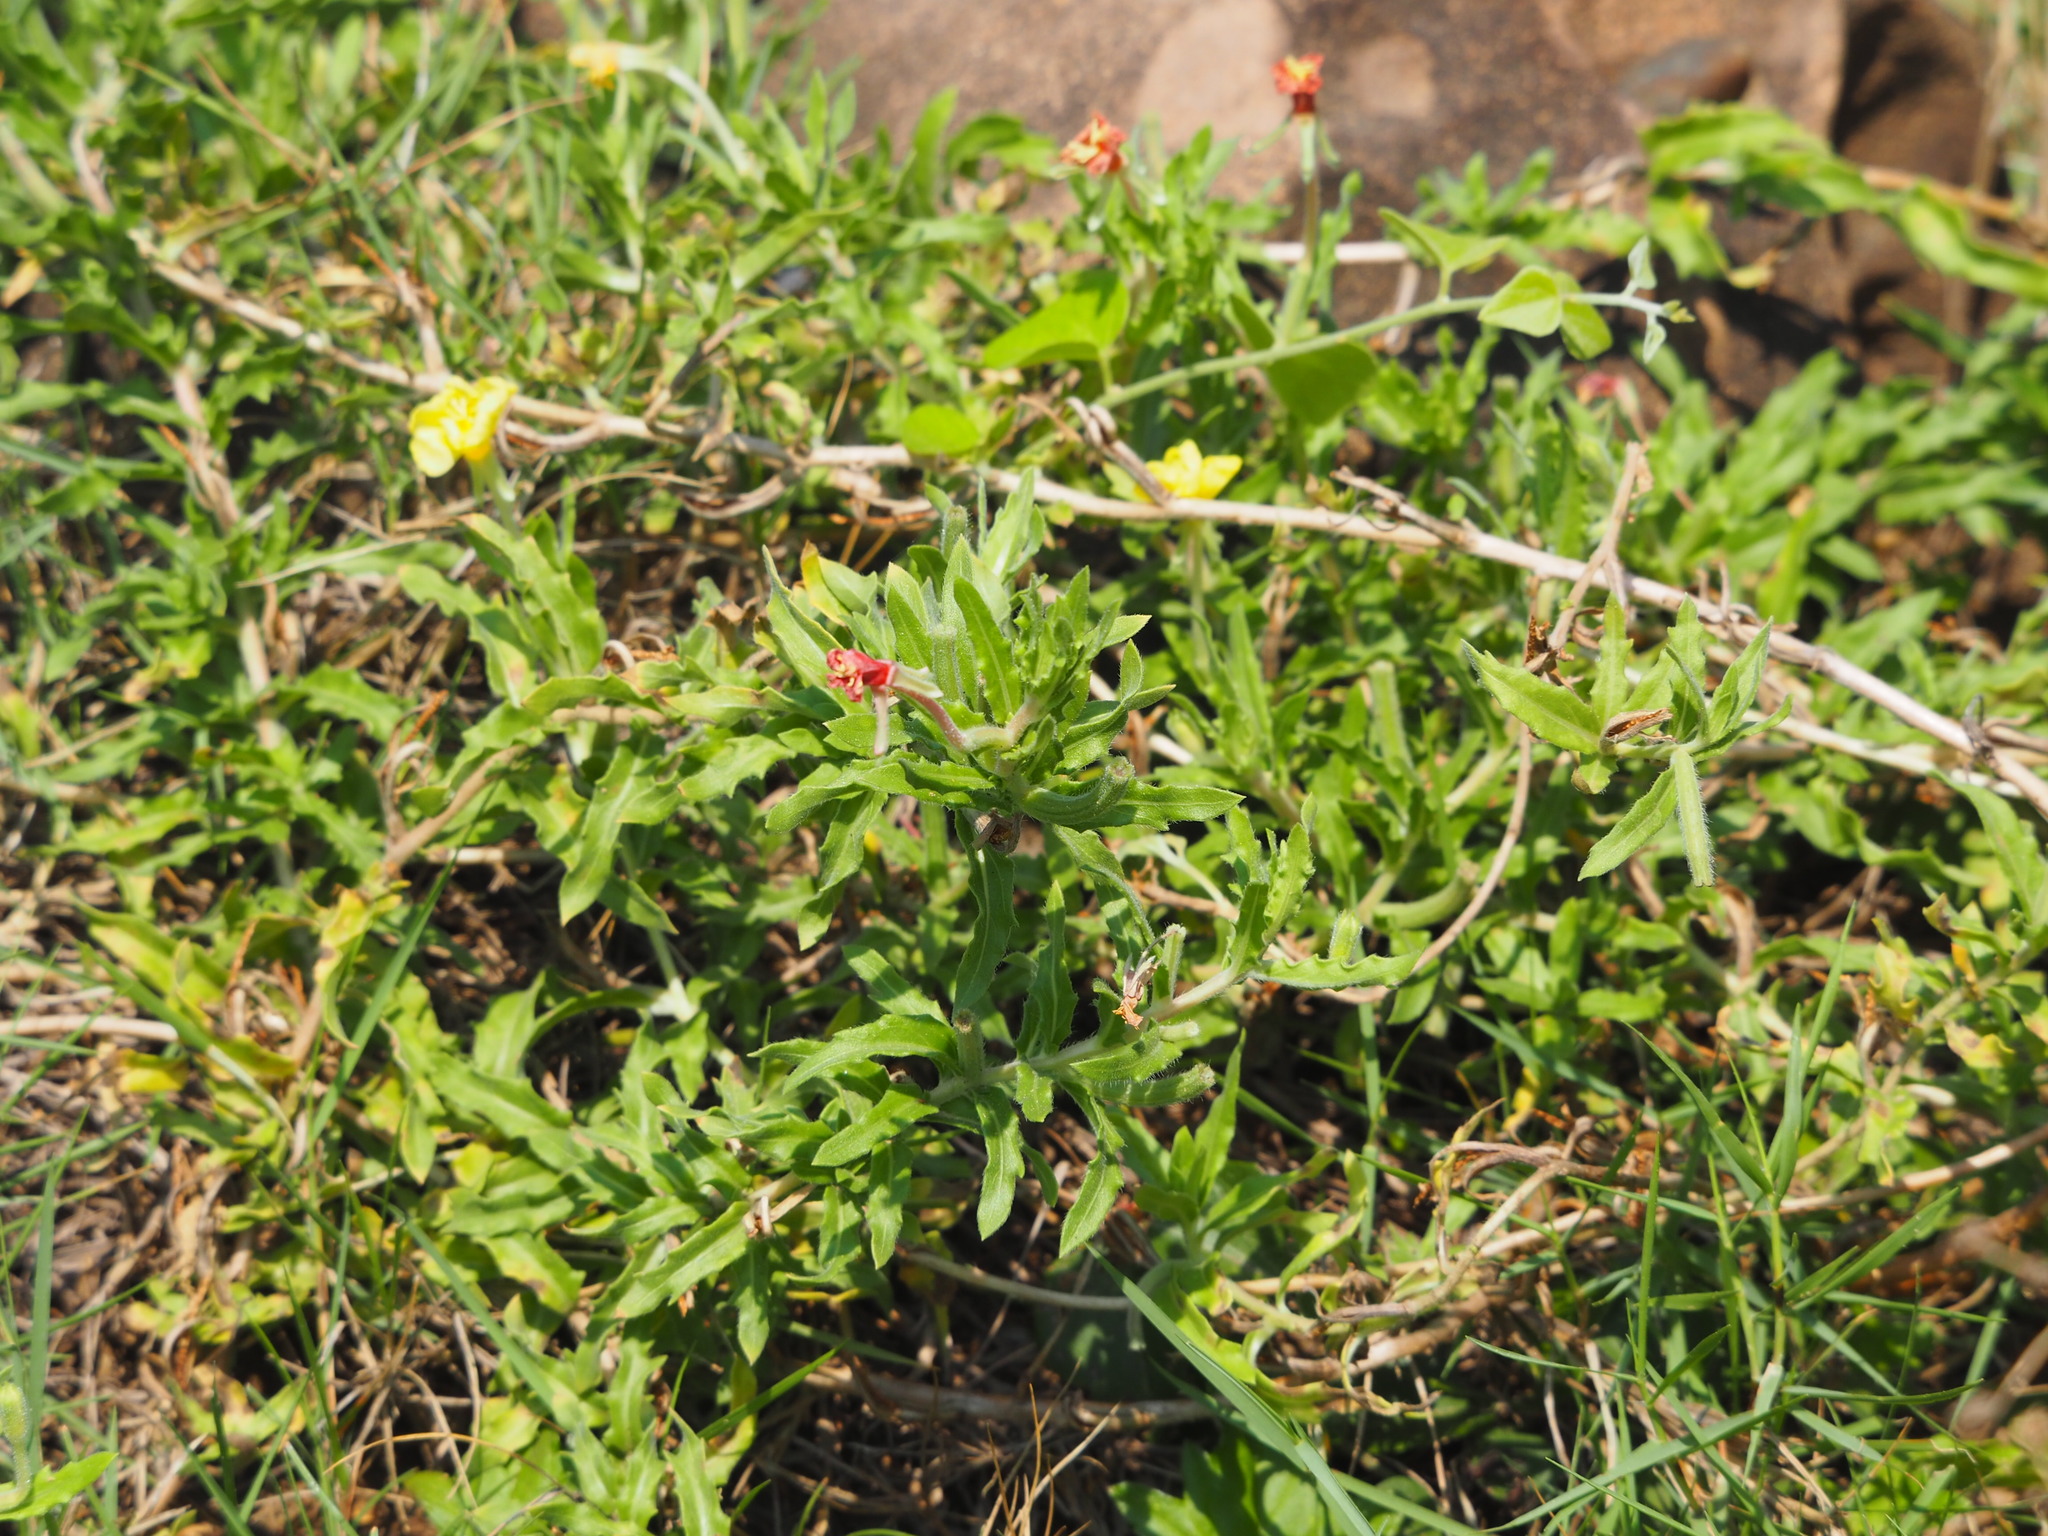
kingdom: Plantae
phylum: Tracheophyta
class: Magnoliopsida
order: Myrtales
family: Onagraceae
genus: Oenothera
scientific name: Oenothera laciniata
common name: Cut-leaved evening-primrose
